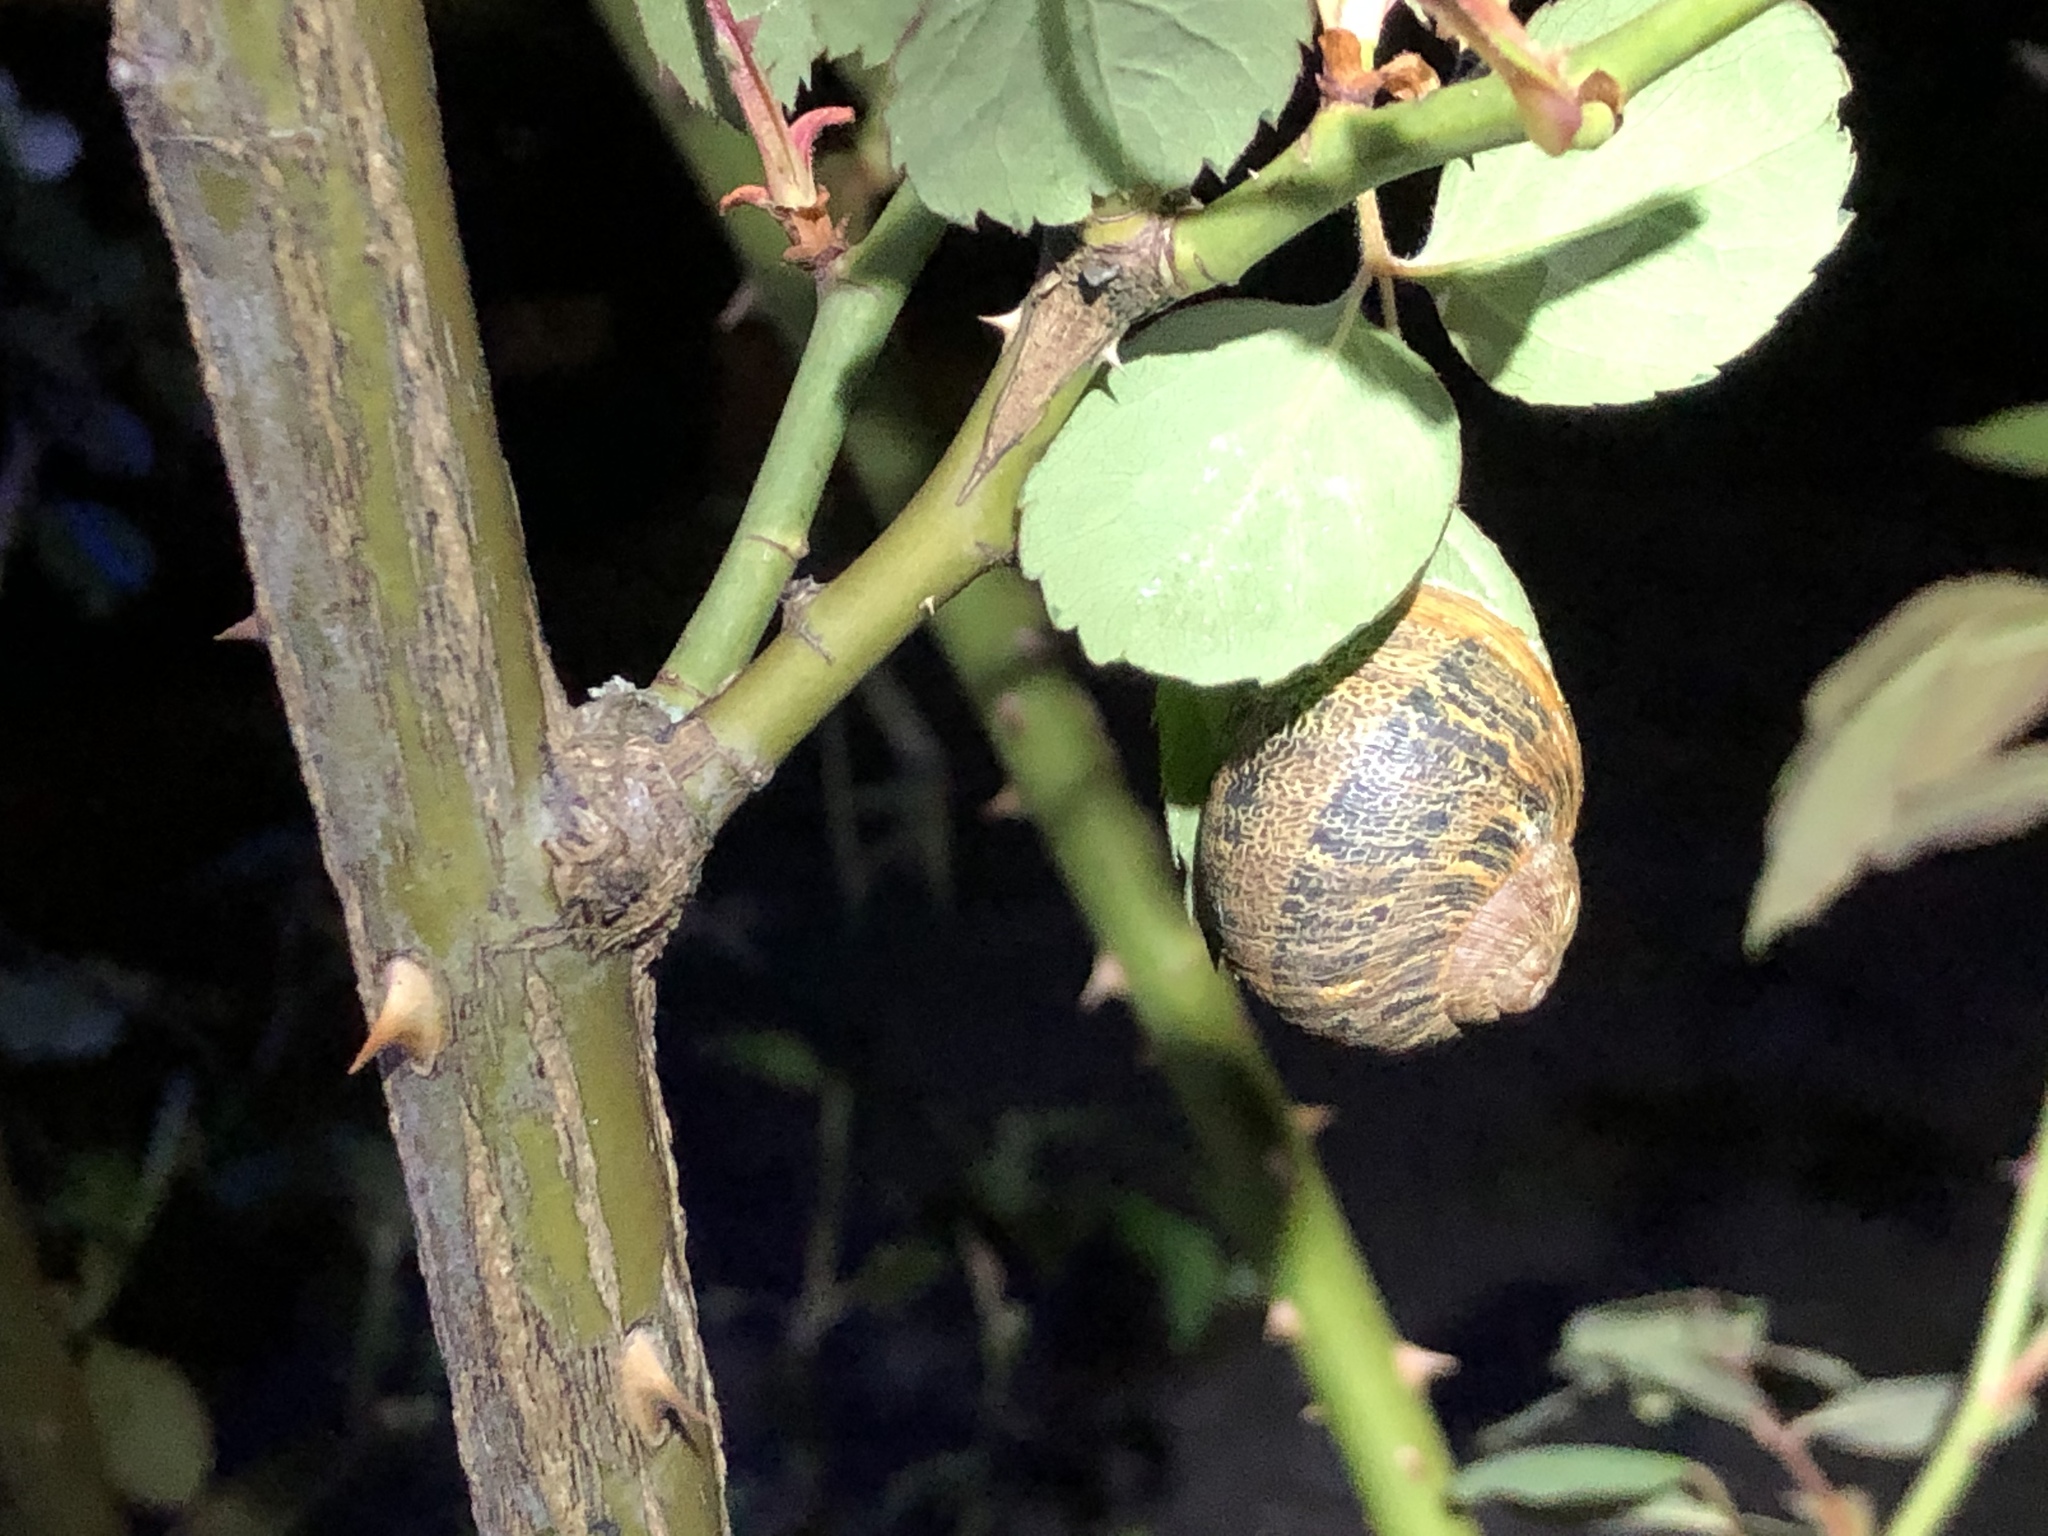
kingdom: Animalia
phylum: Mollusca
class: Gastropoda
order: Stylommatophora
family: Helicidae
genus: Cornu
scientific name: Cornu aspersum
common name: Brown garden snail
